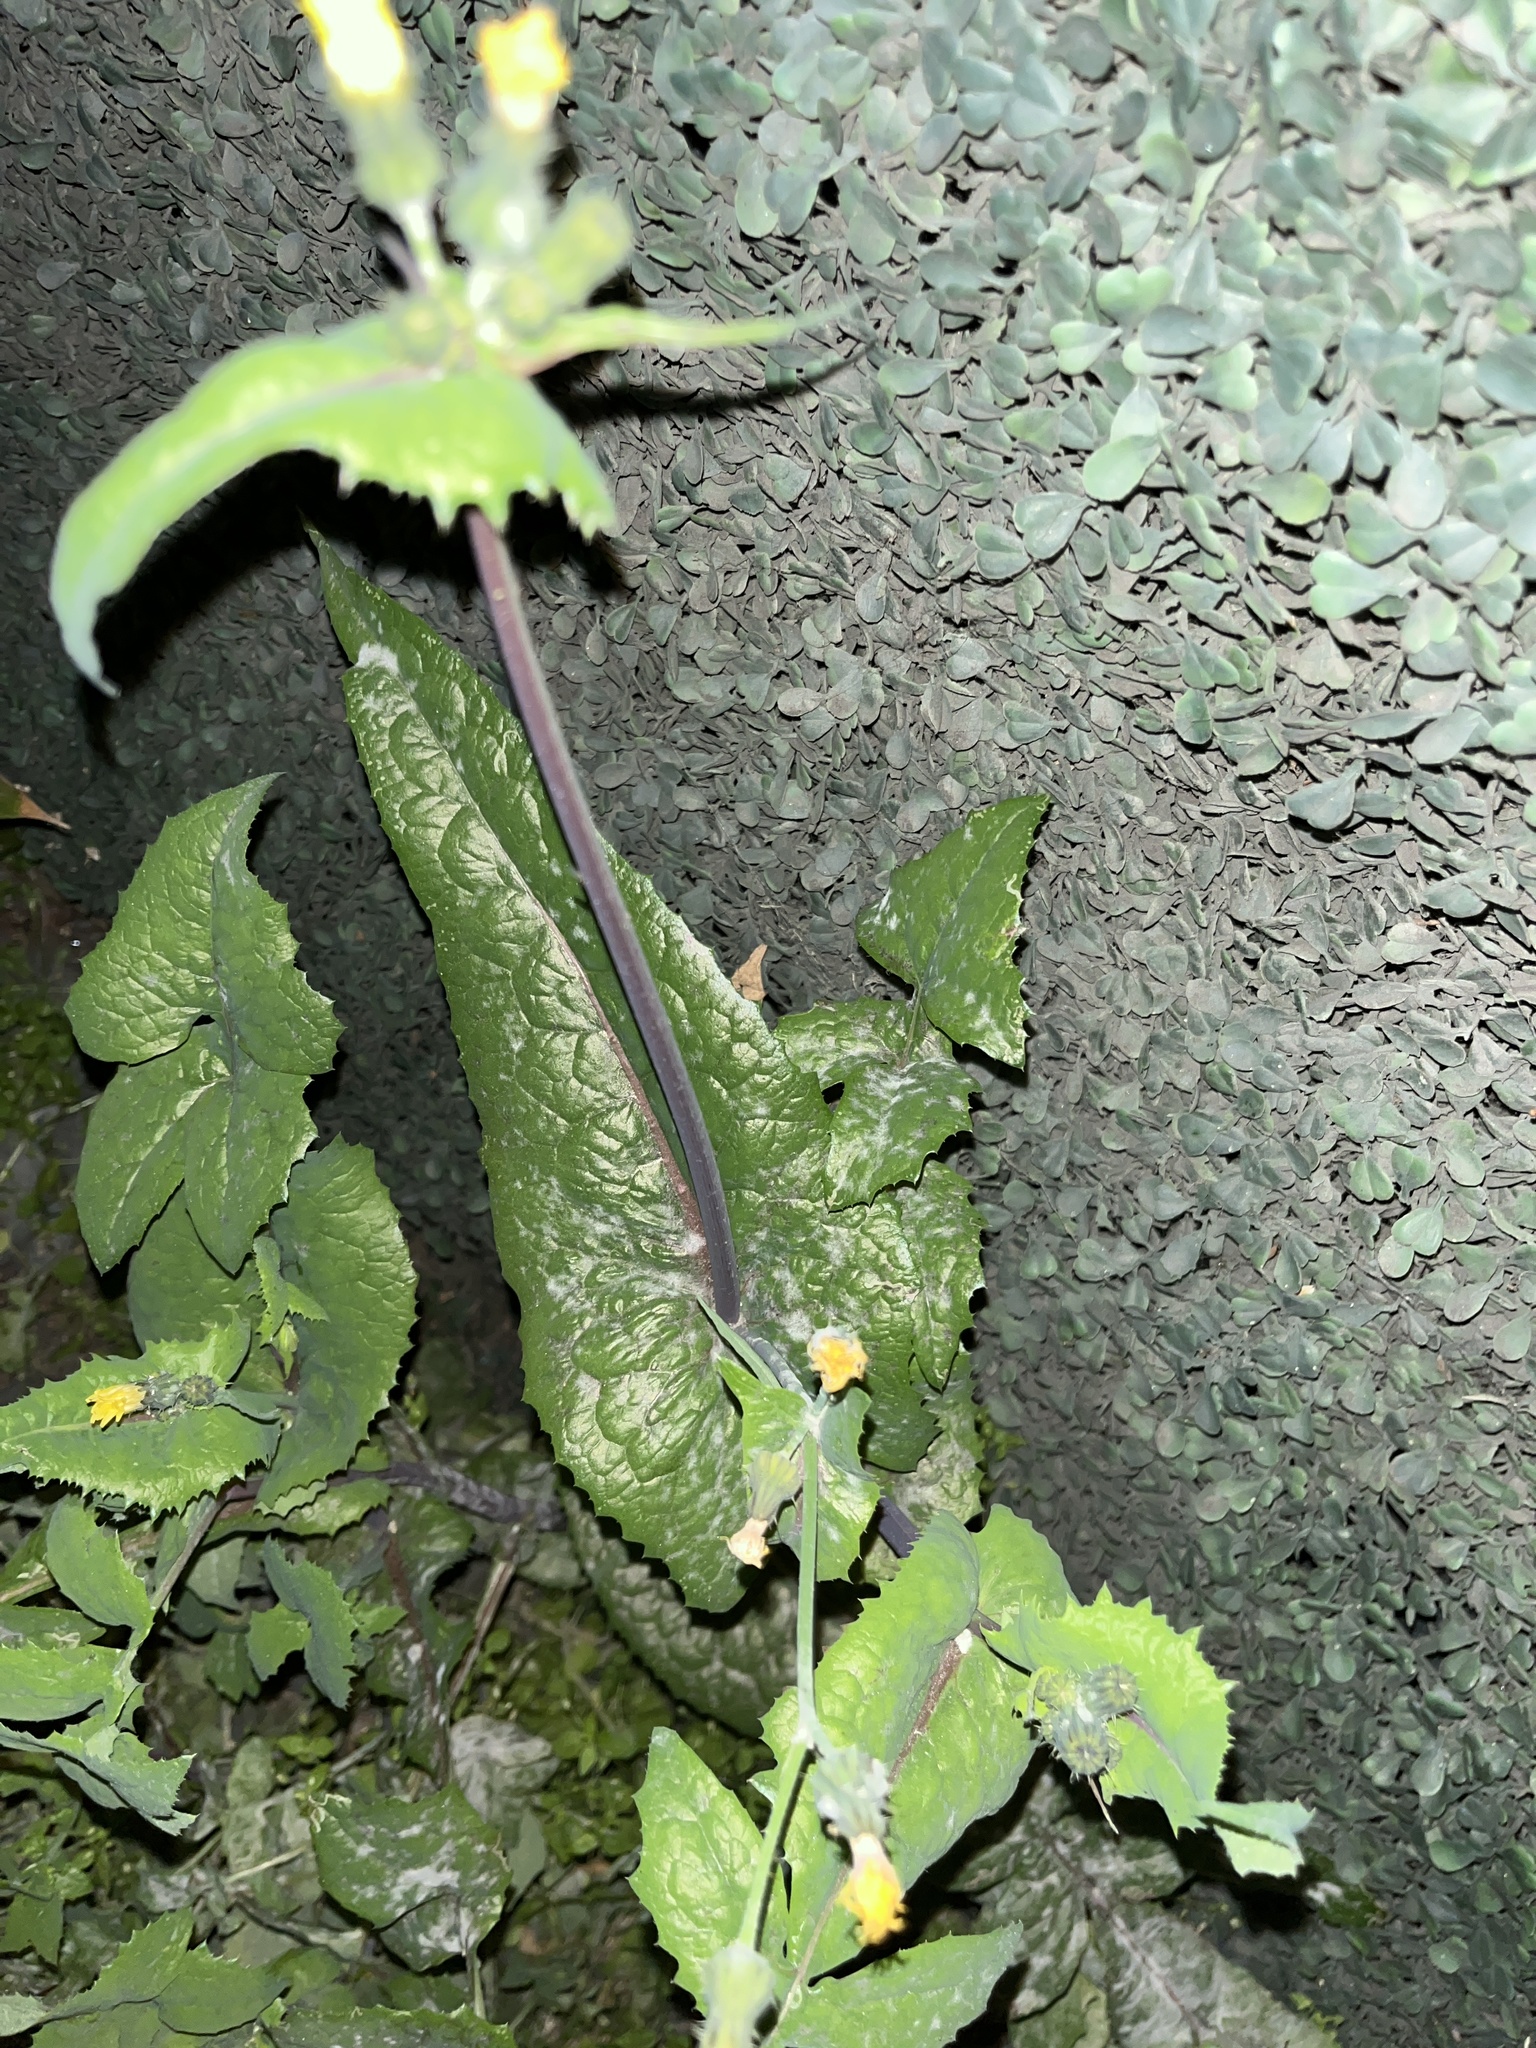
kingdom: Plantae
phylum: Tracheophyta
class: Magnoliopsida
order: Asterales
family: Asteraceae
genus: Sonchus
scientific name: Sonchus oleraceus
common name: Common sowthistle
